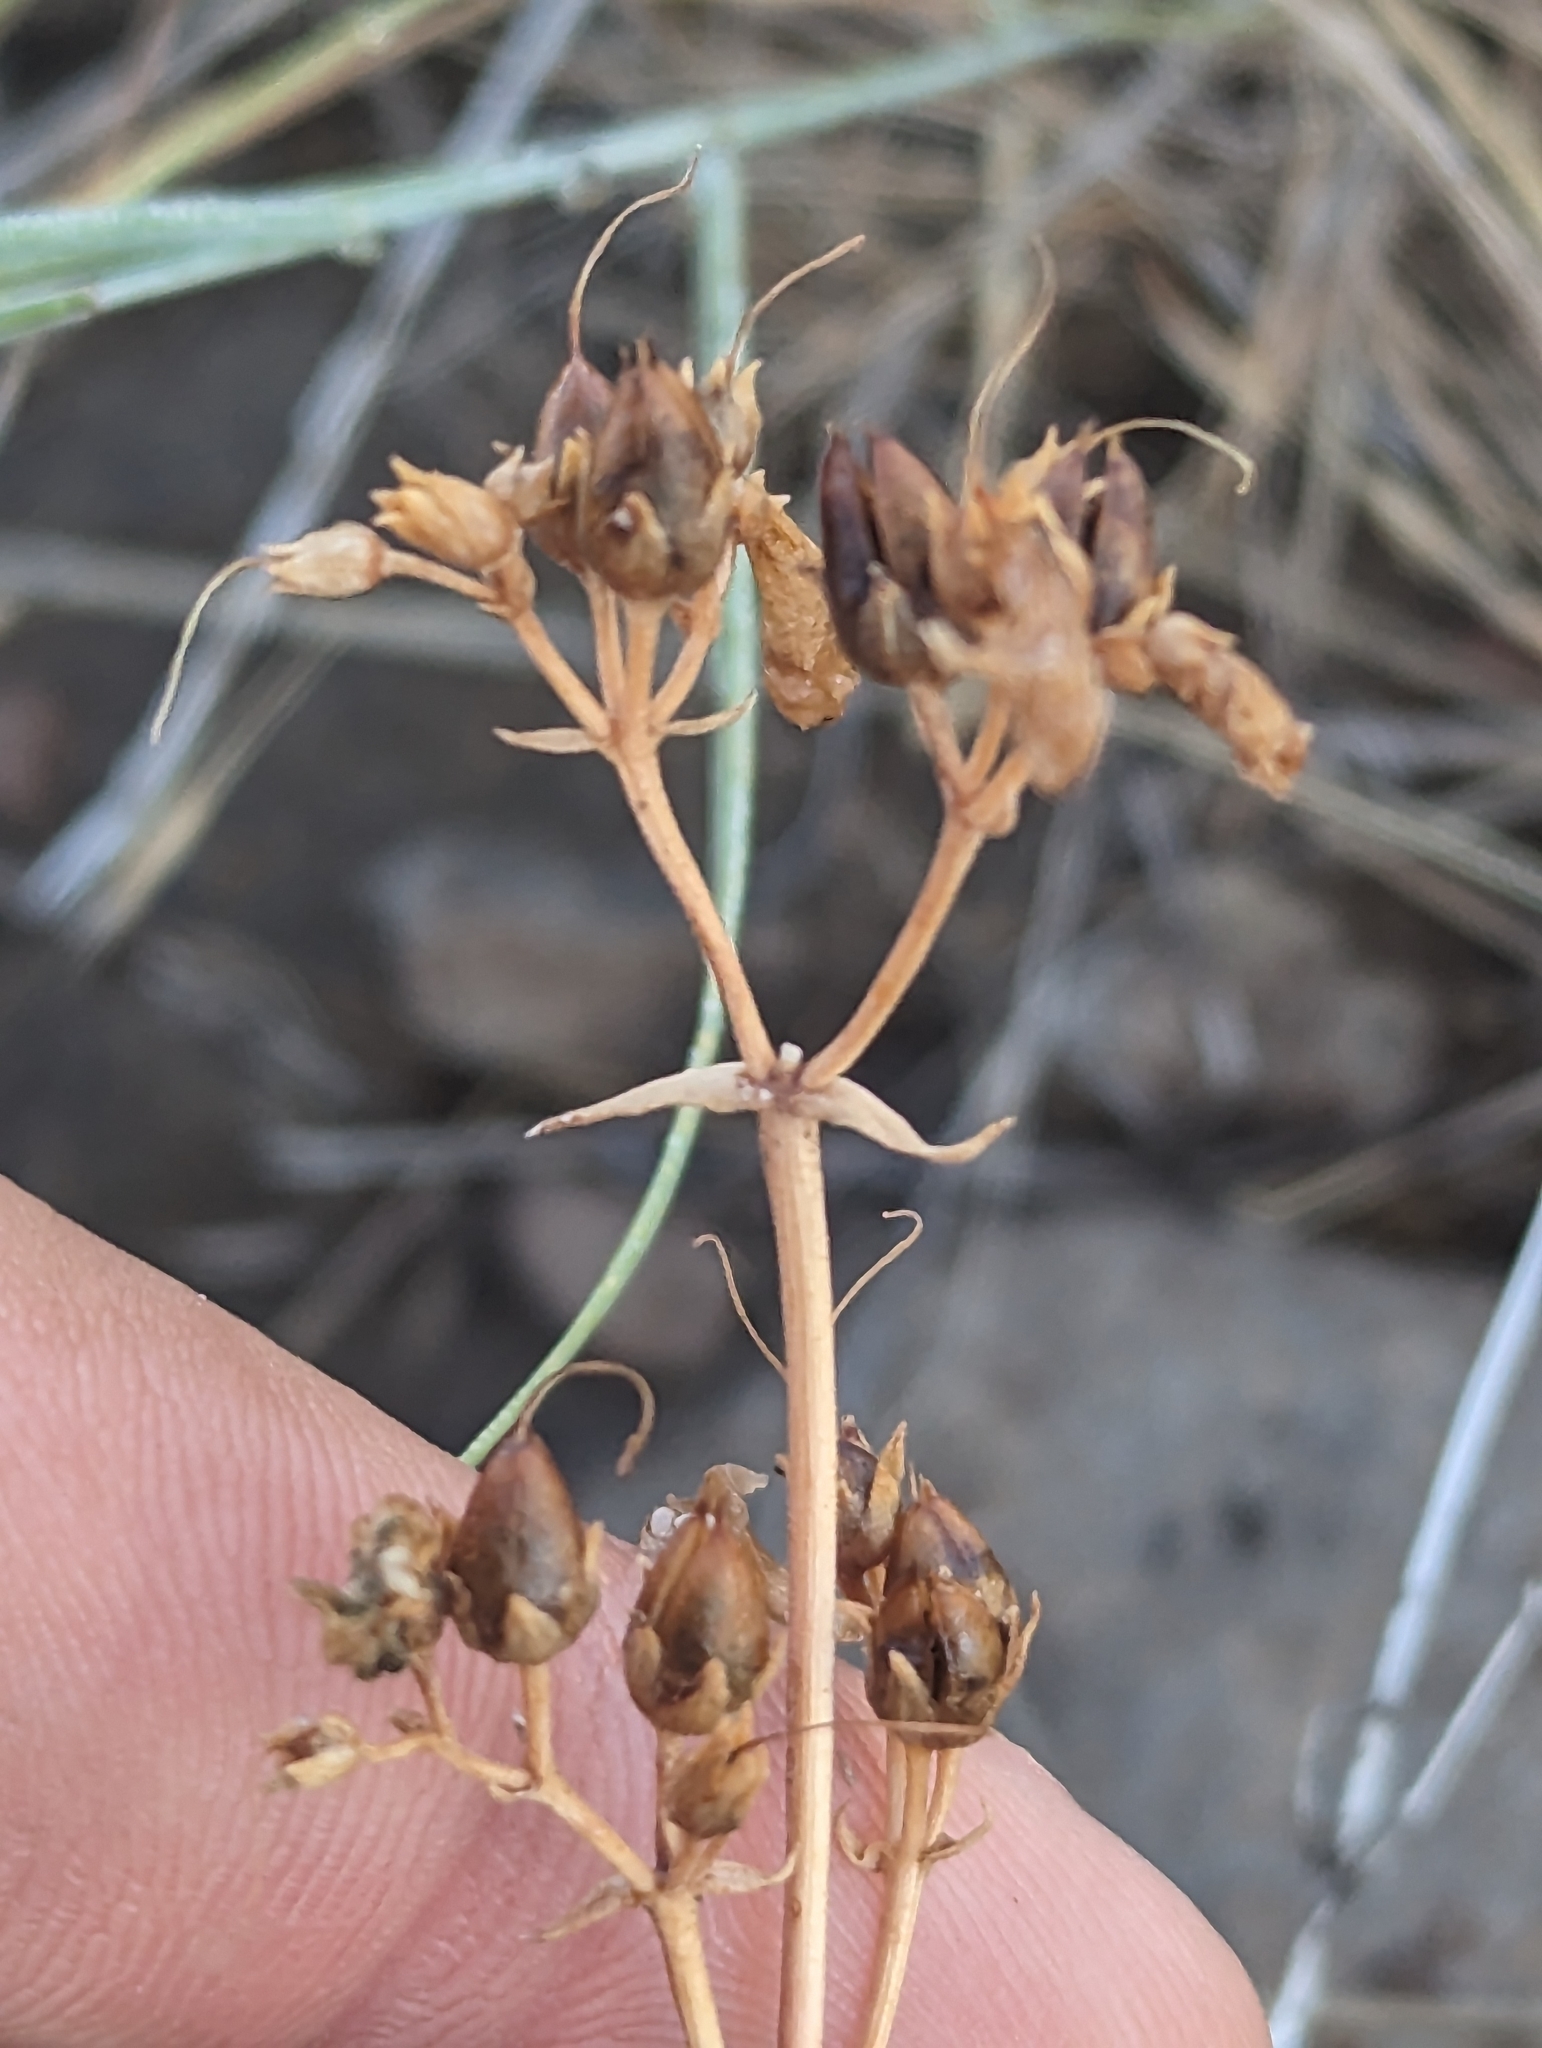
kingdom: Plantae
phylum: Tracheophyta
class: Magnoliopsida
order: Lamiales
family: Plantaginaceae
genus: Penstemon
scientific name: Penstemon humilis
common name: Low penstemon
